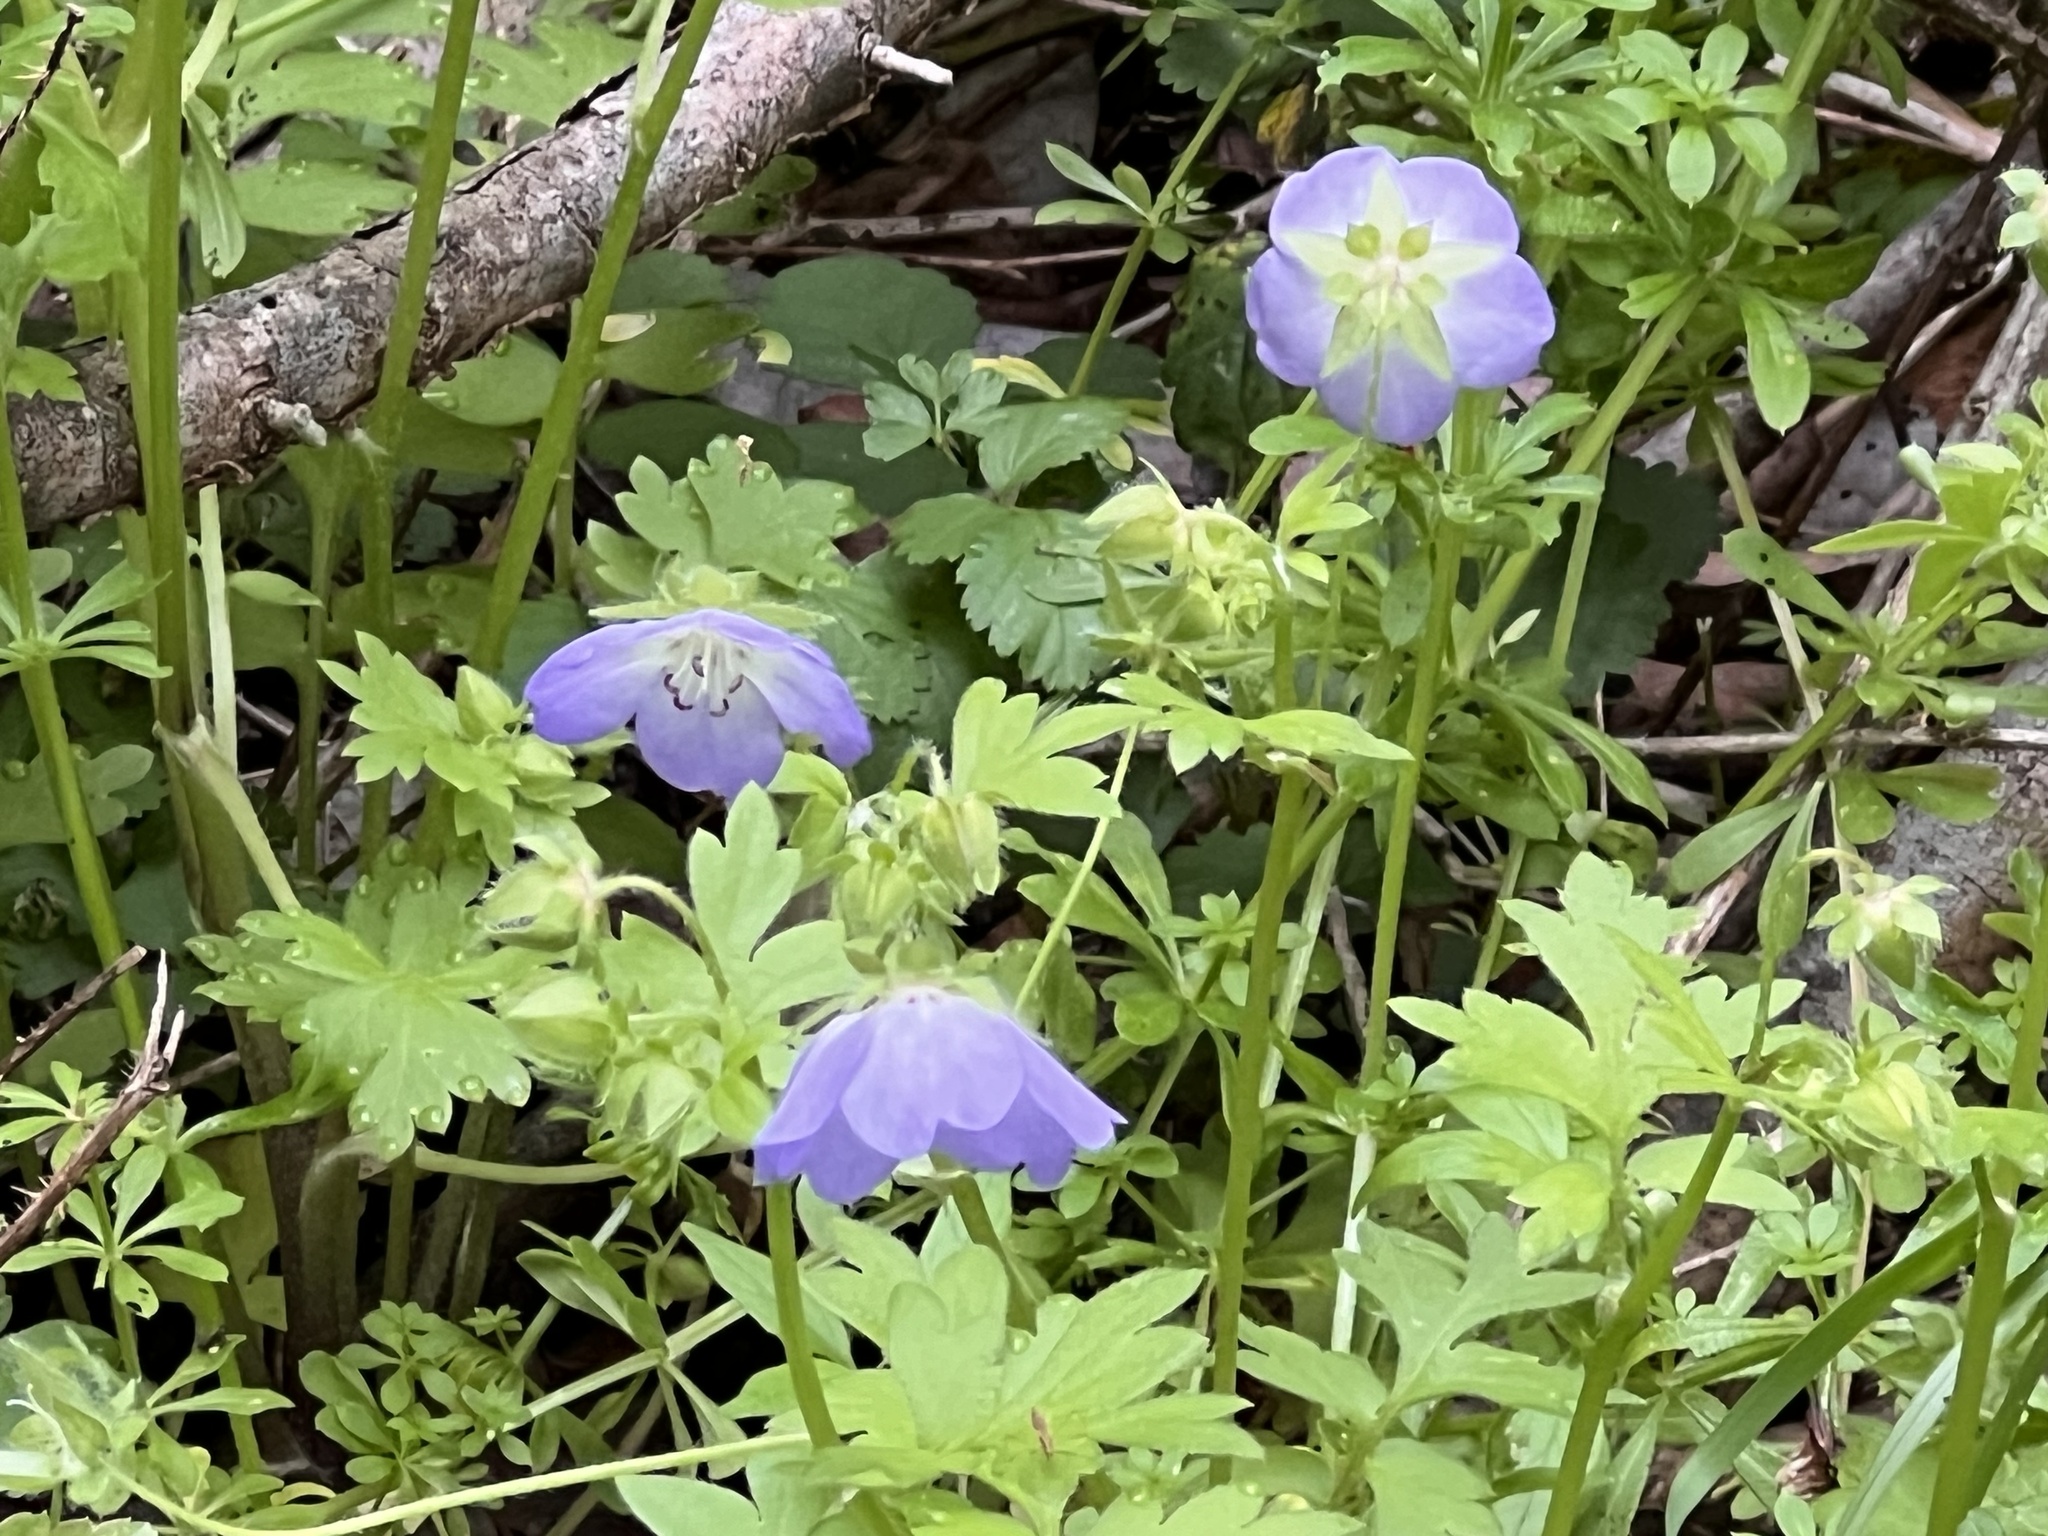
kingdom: Plantae
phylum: Tracheophyta
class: Magnoliopsida
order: Boraginales
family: Hydrophyllaceae
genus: Nemophila
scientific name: Nemophila phacelioides
